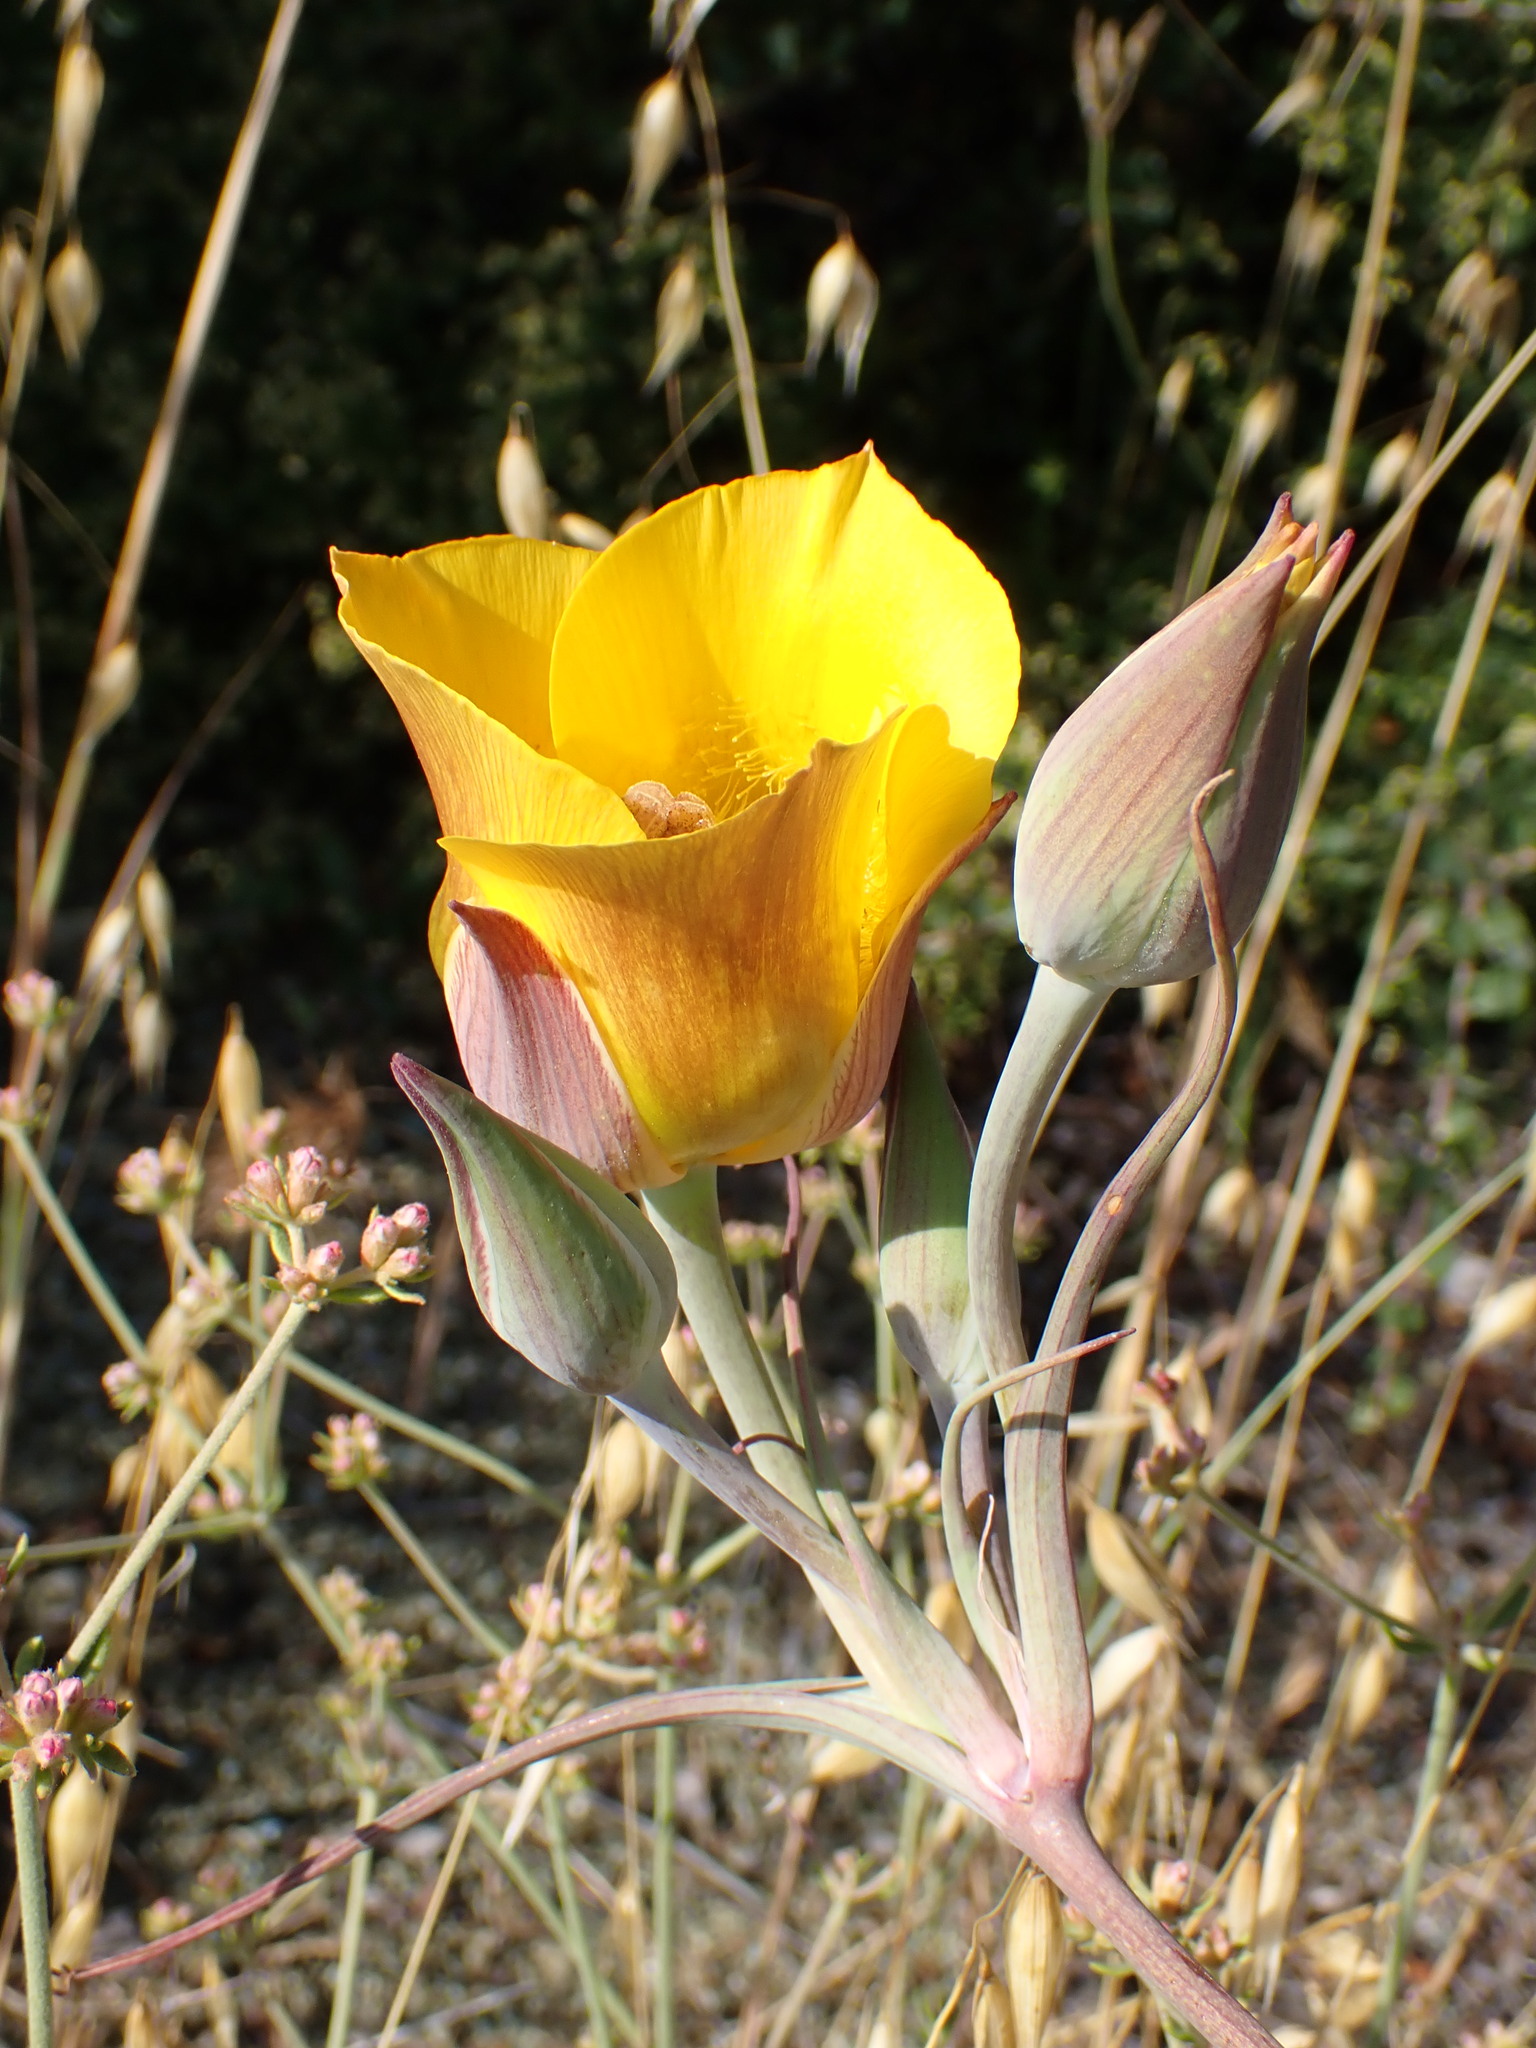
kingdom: Plantae
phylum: Tracheophyta
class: Liliopsida
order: Liliales
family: Liliaceae
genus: Calochortus
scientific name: Calochortus clavatus
